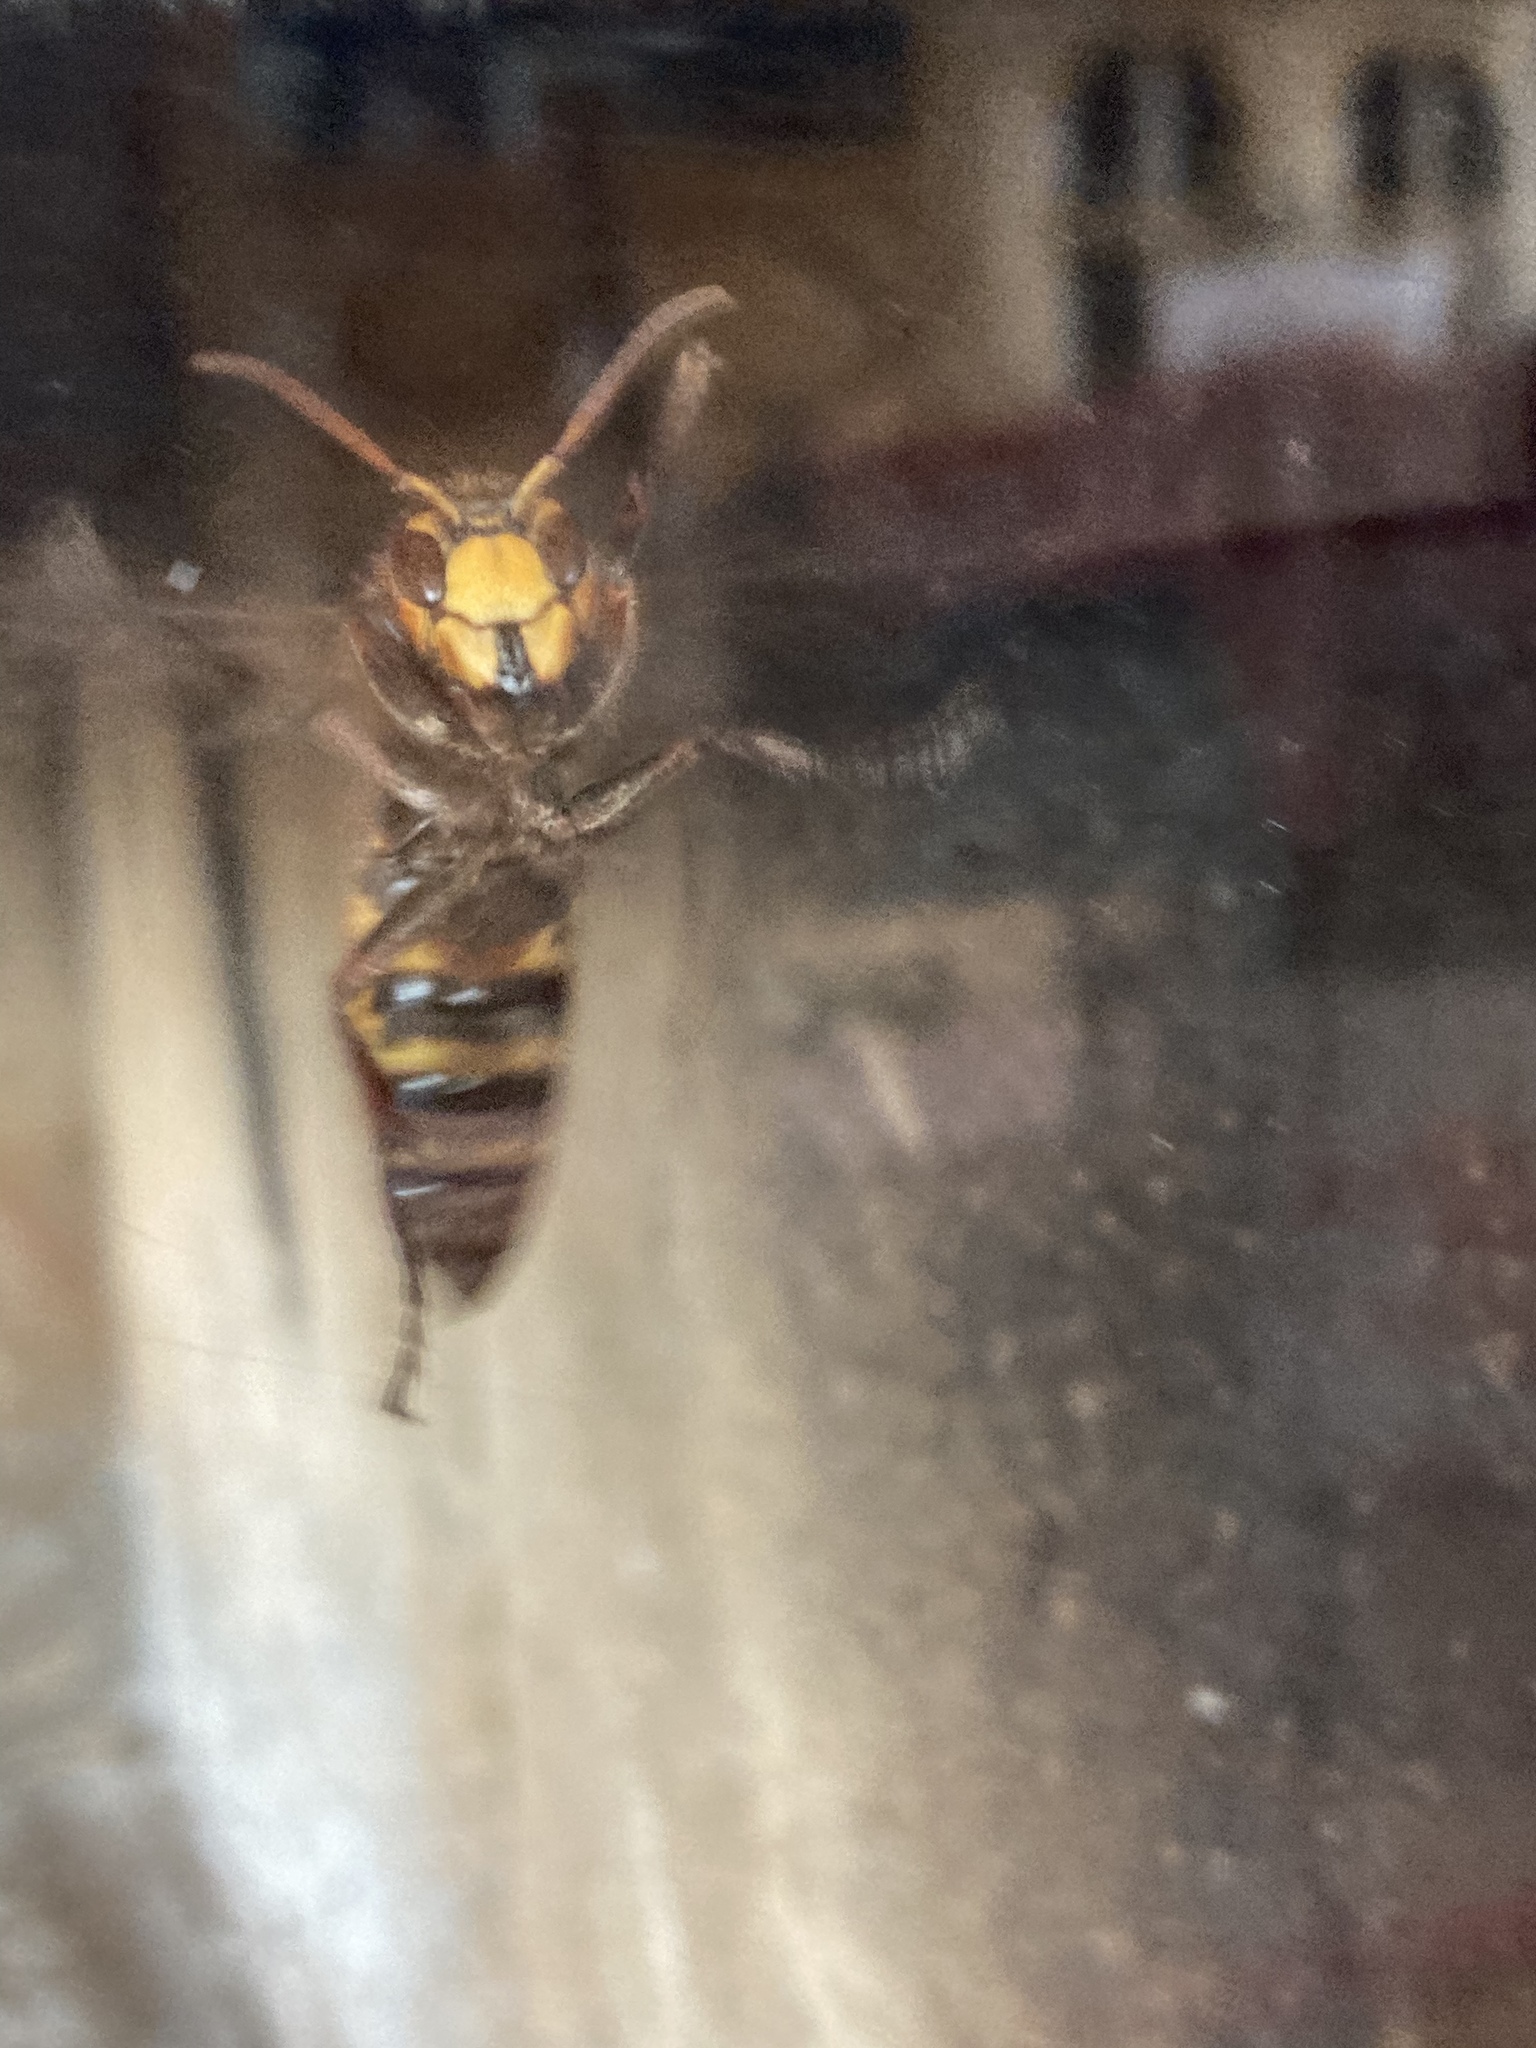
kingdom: Animalia
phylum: Arthropoda
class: Insecta
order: Hymenoptera
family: Vespidae
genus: Vespa
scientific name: Vespa crabro
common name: Hornet
